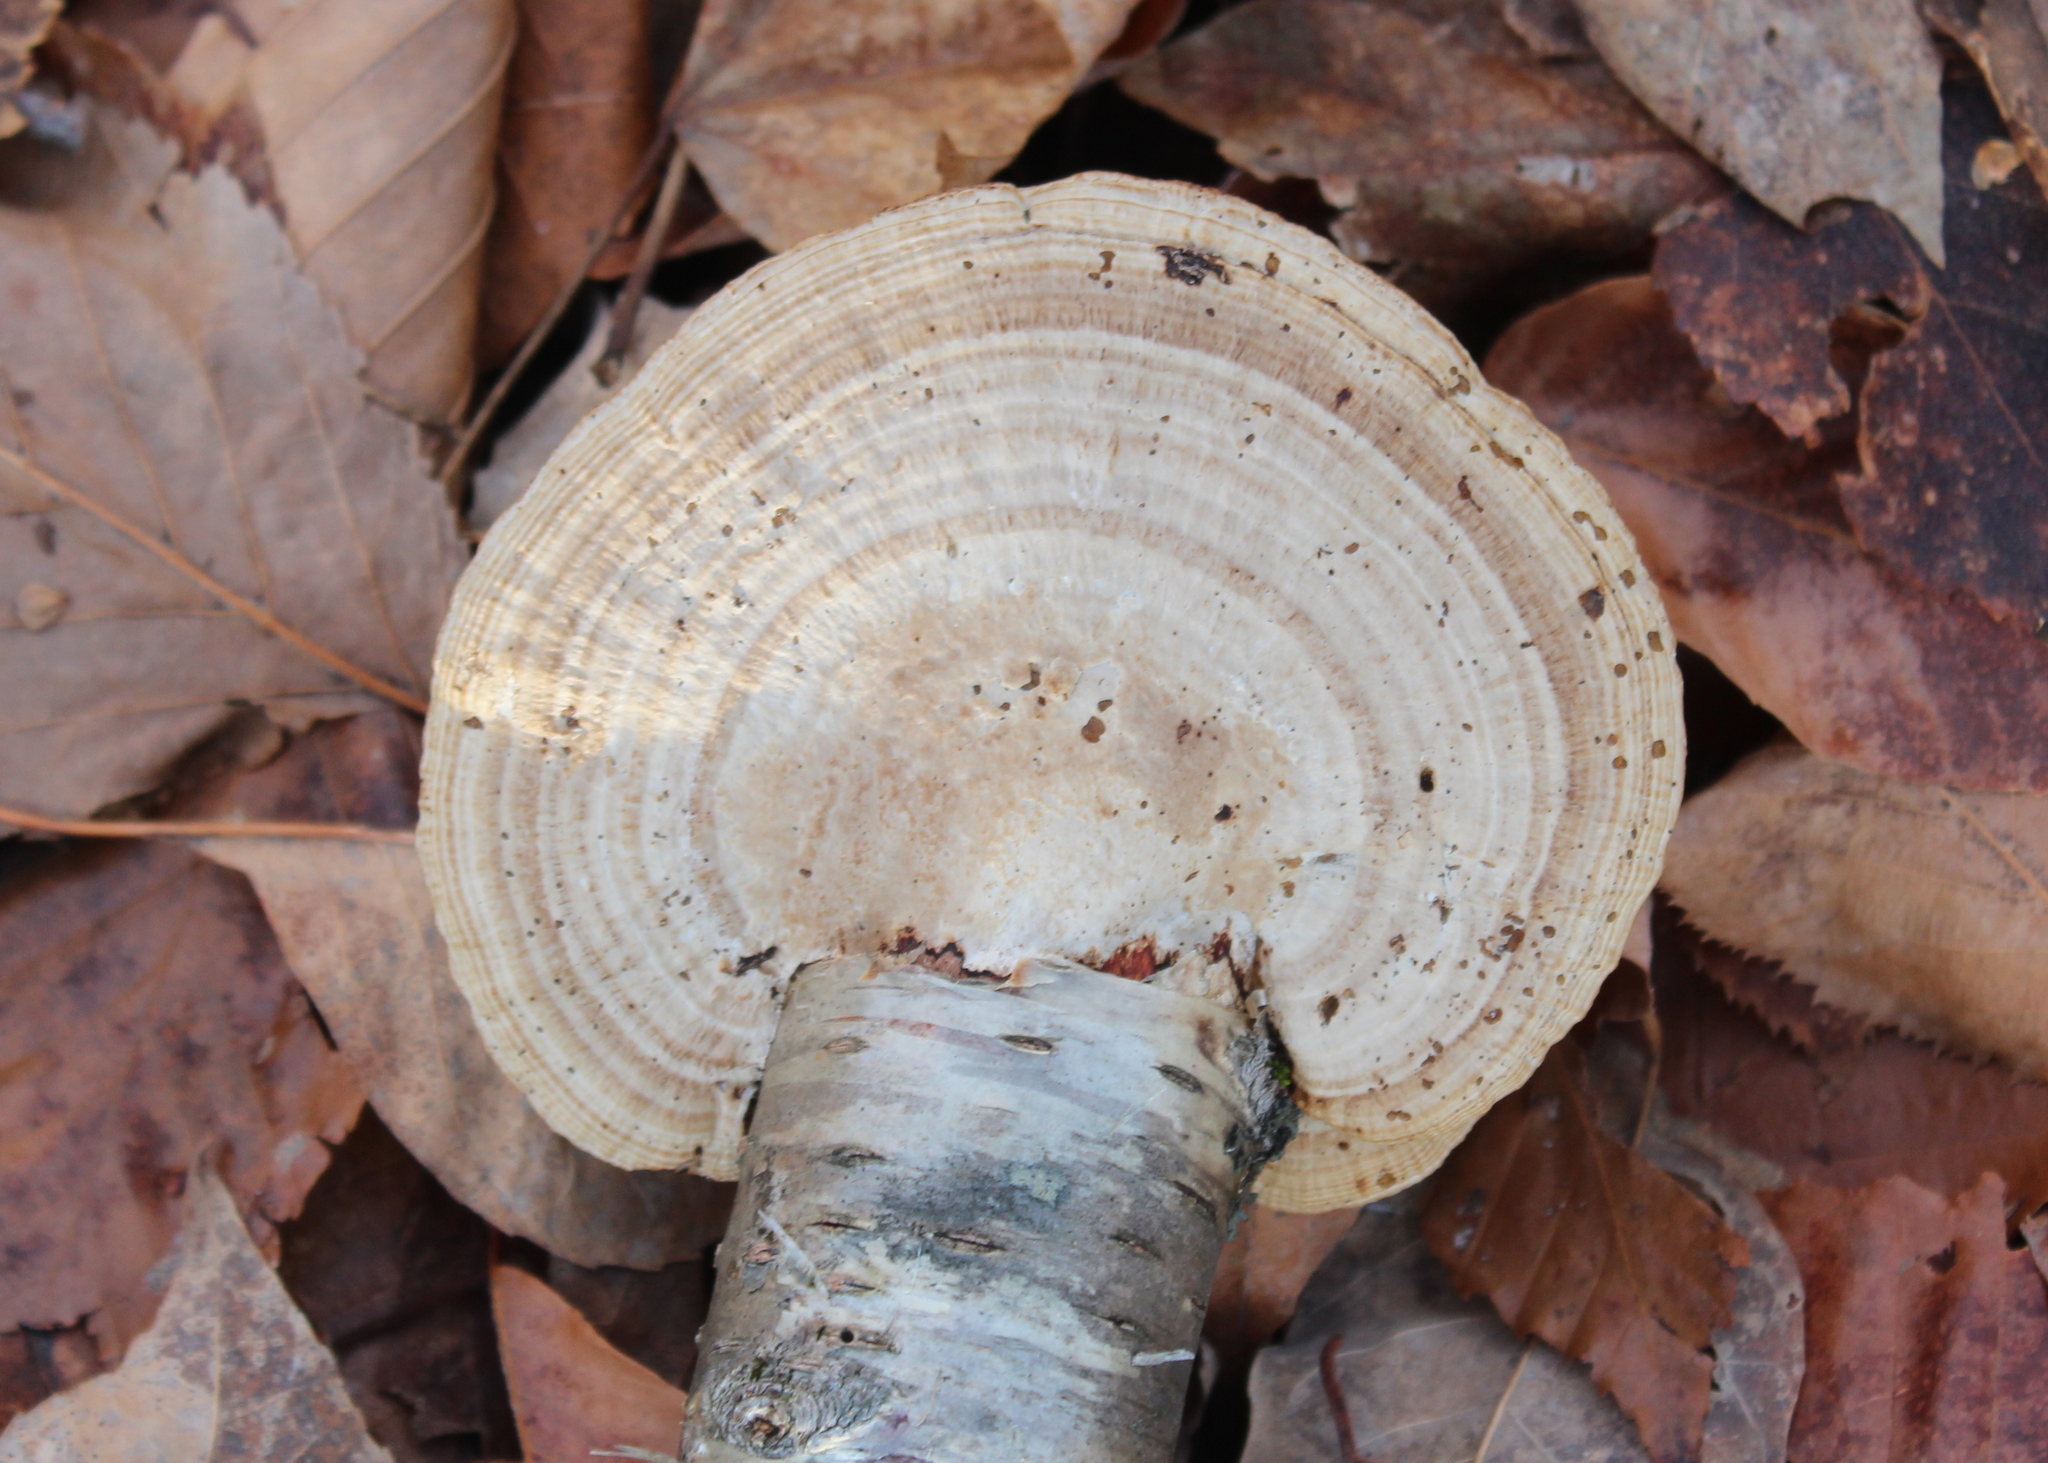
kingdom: Fungi
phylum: Basidiomycota
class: Agaricomycetes
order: Polyporales
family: Polyporaceae
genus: Daedaleopsis
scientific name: Daedaleopsis confragosa
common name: Blushing bracket
